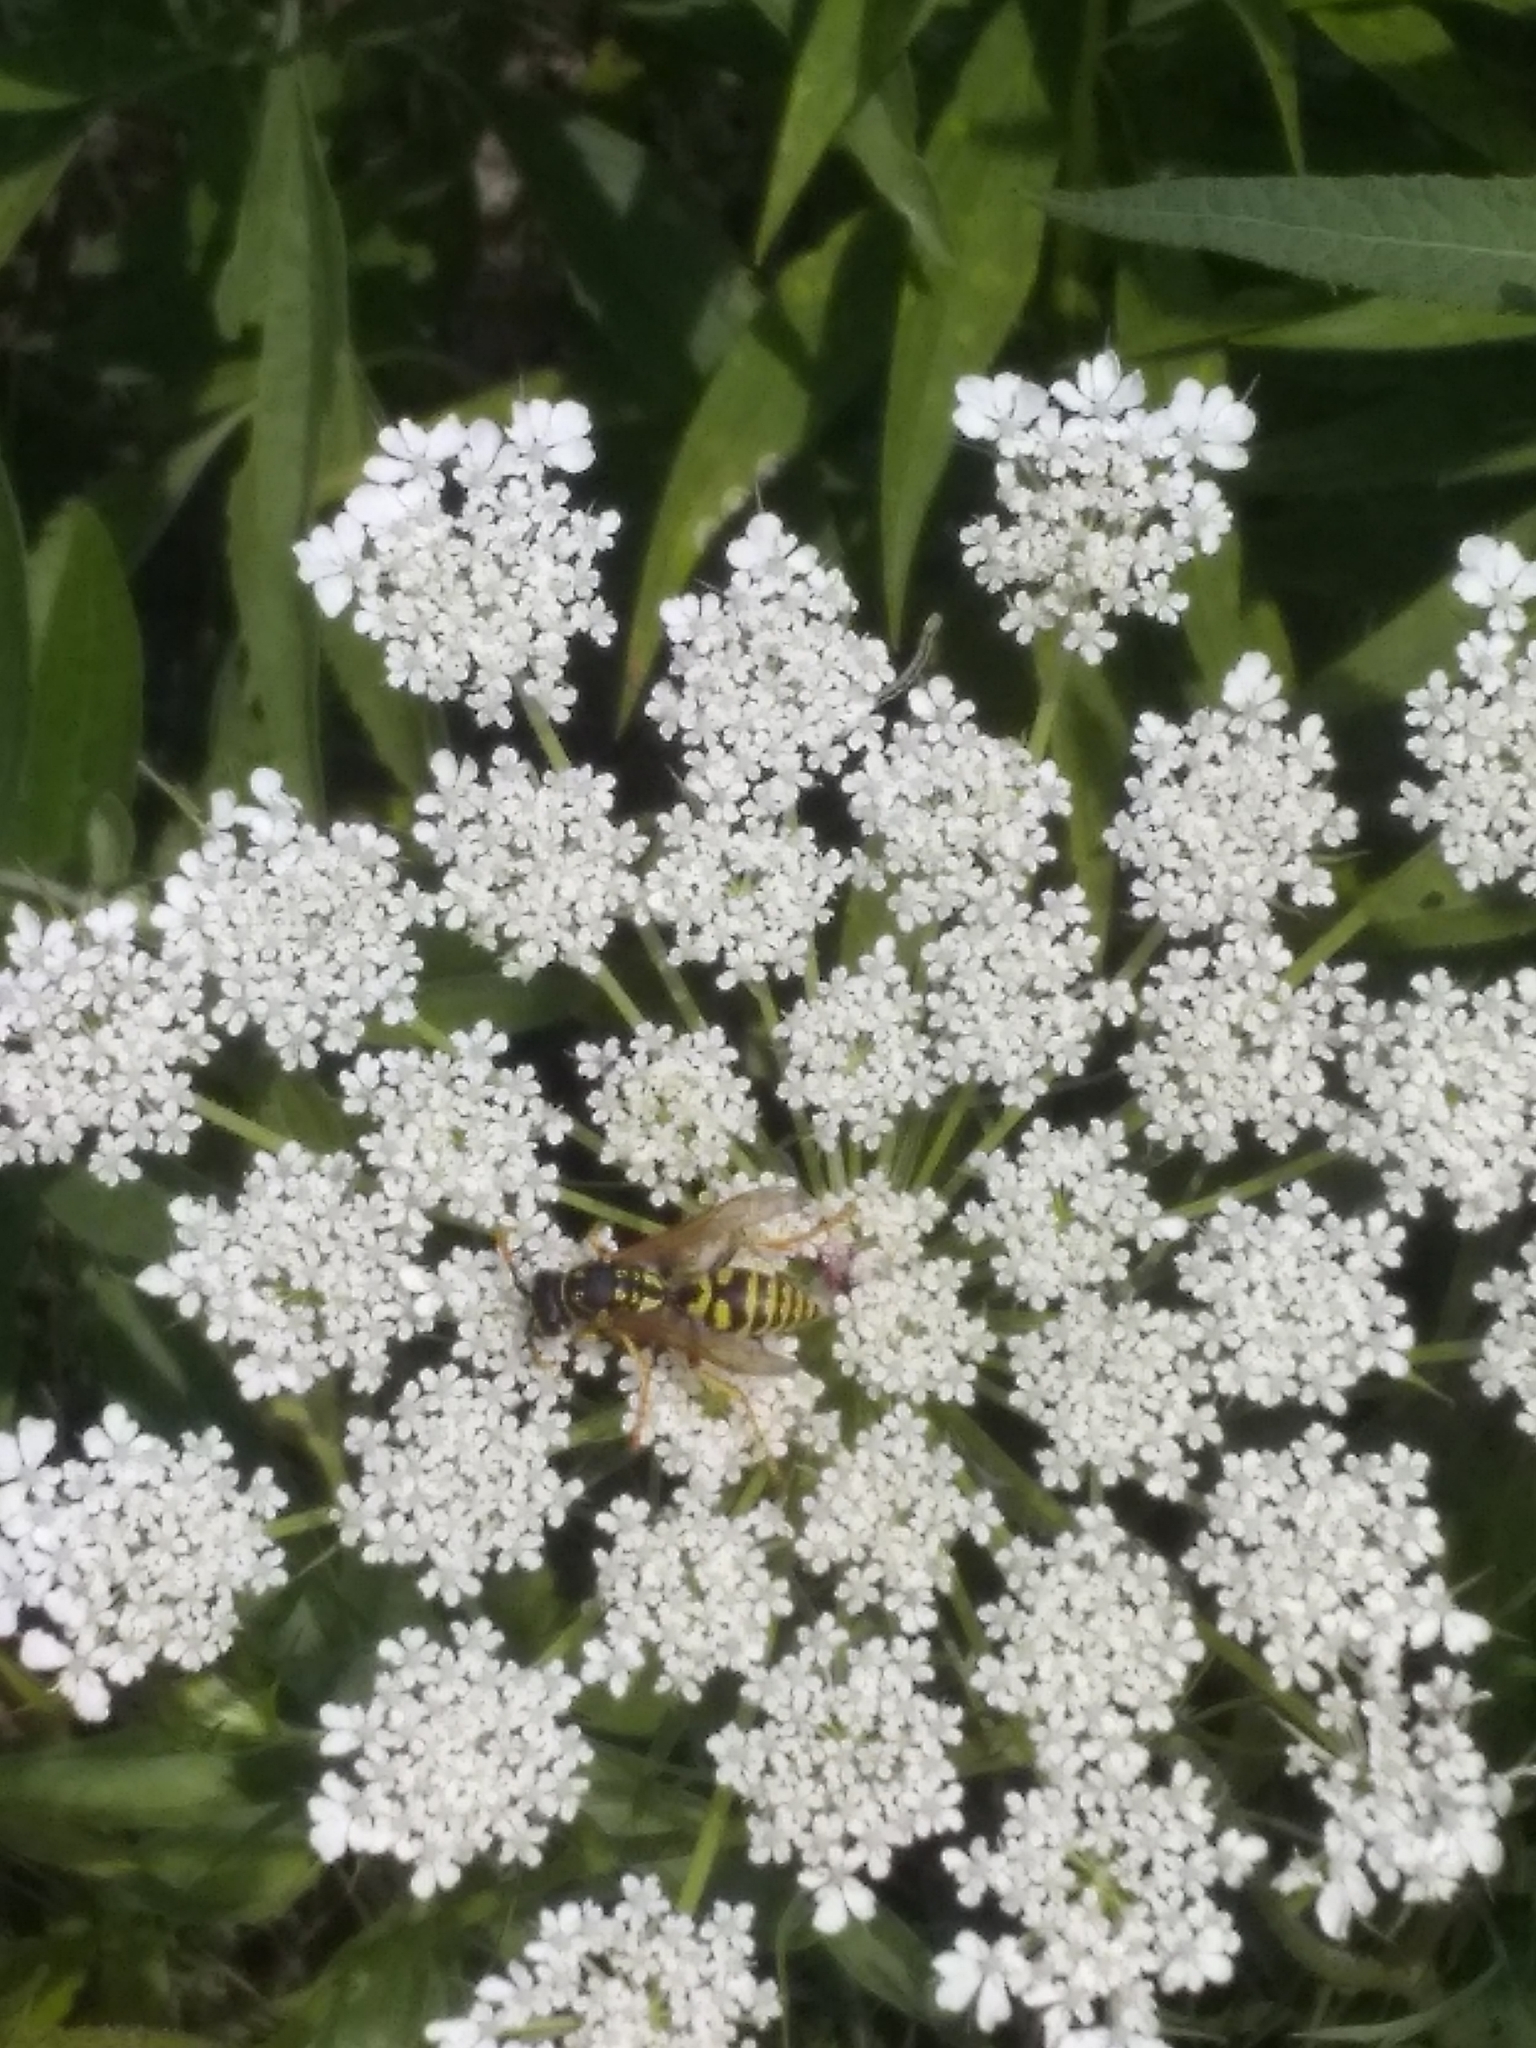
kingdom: Animalia
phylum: Arthropoda
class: Insecta
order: Hymenoptera
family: Eumenidae
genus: Polistes
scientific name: Polistes dominula
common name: Paper wasp
